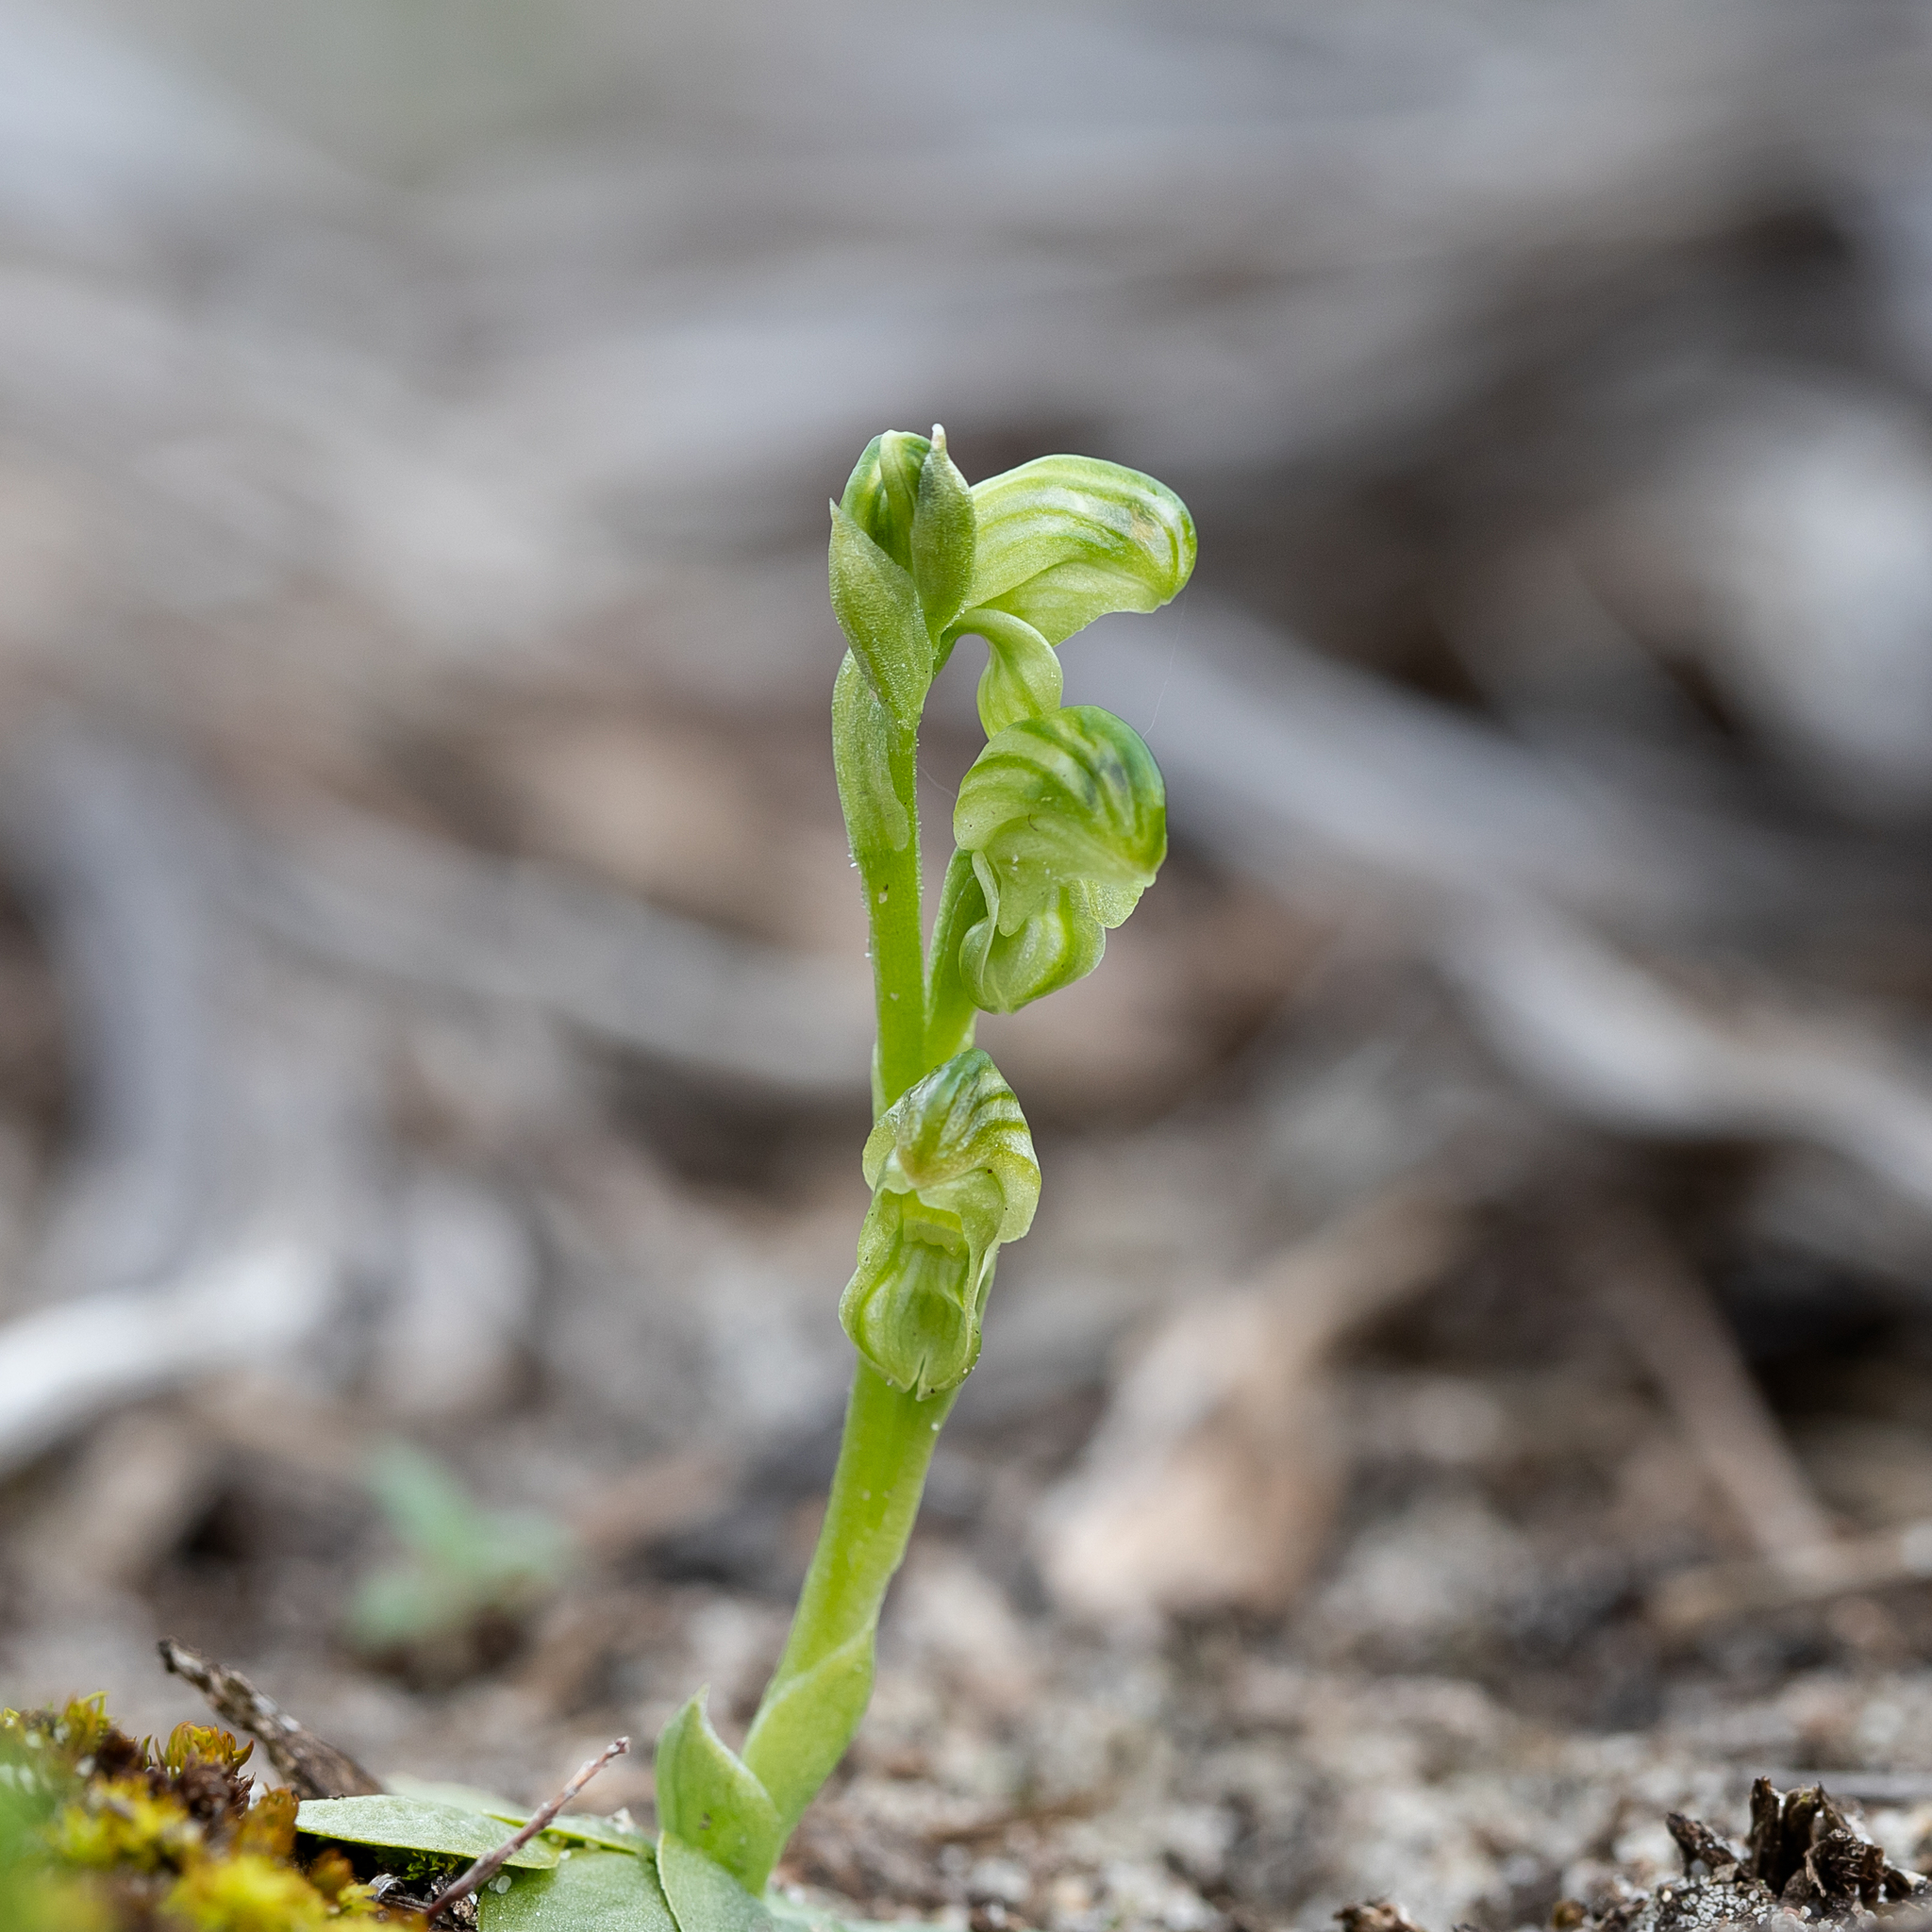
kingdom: Plantae
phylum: Tracheophyta
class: Liliopsida
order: Asparagales
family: Orchidaceae
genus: Pterostylis
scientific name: Pterostylis cycnocephala
